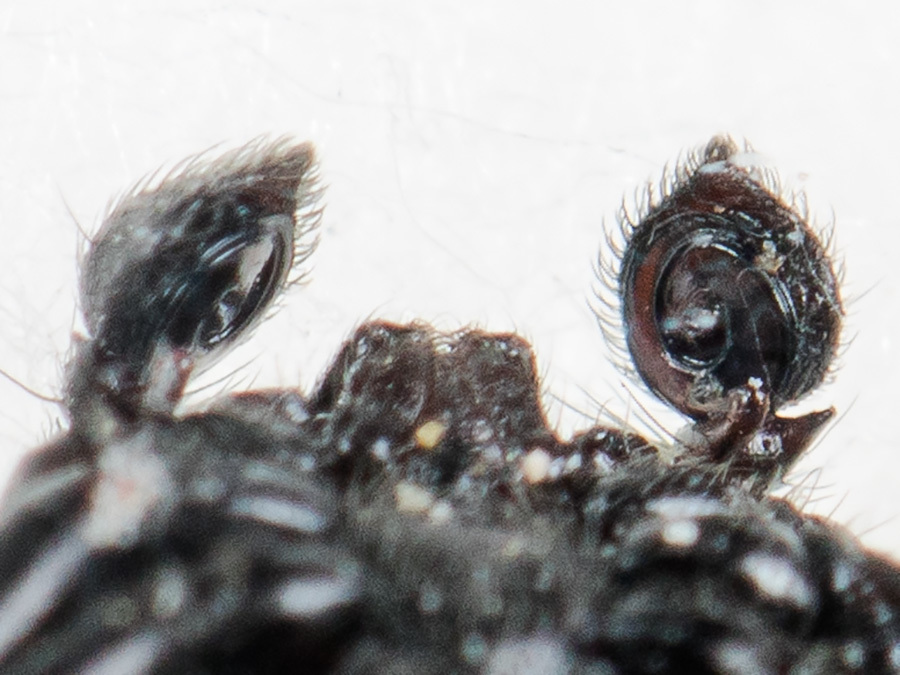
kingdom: Animalia
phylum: Arthropoda
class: Arachnida
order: Araneae
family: Thomisidae
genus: Synema
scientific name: Synema utotchkini
